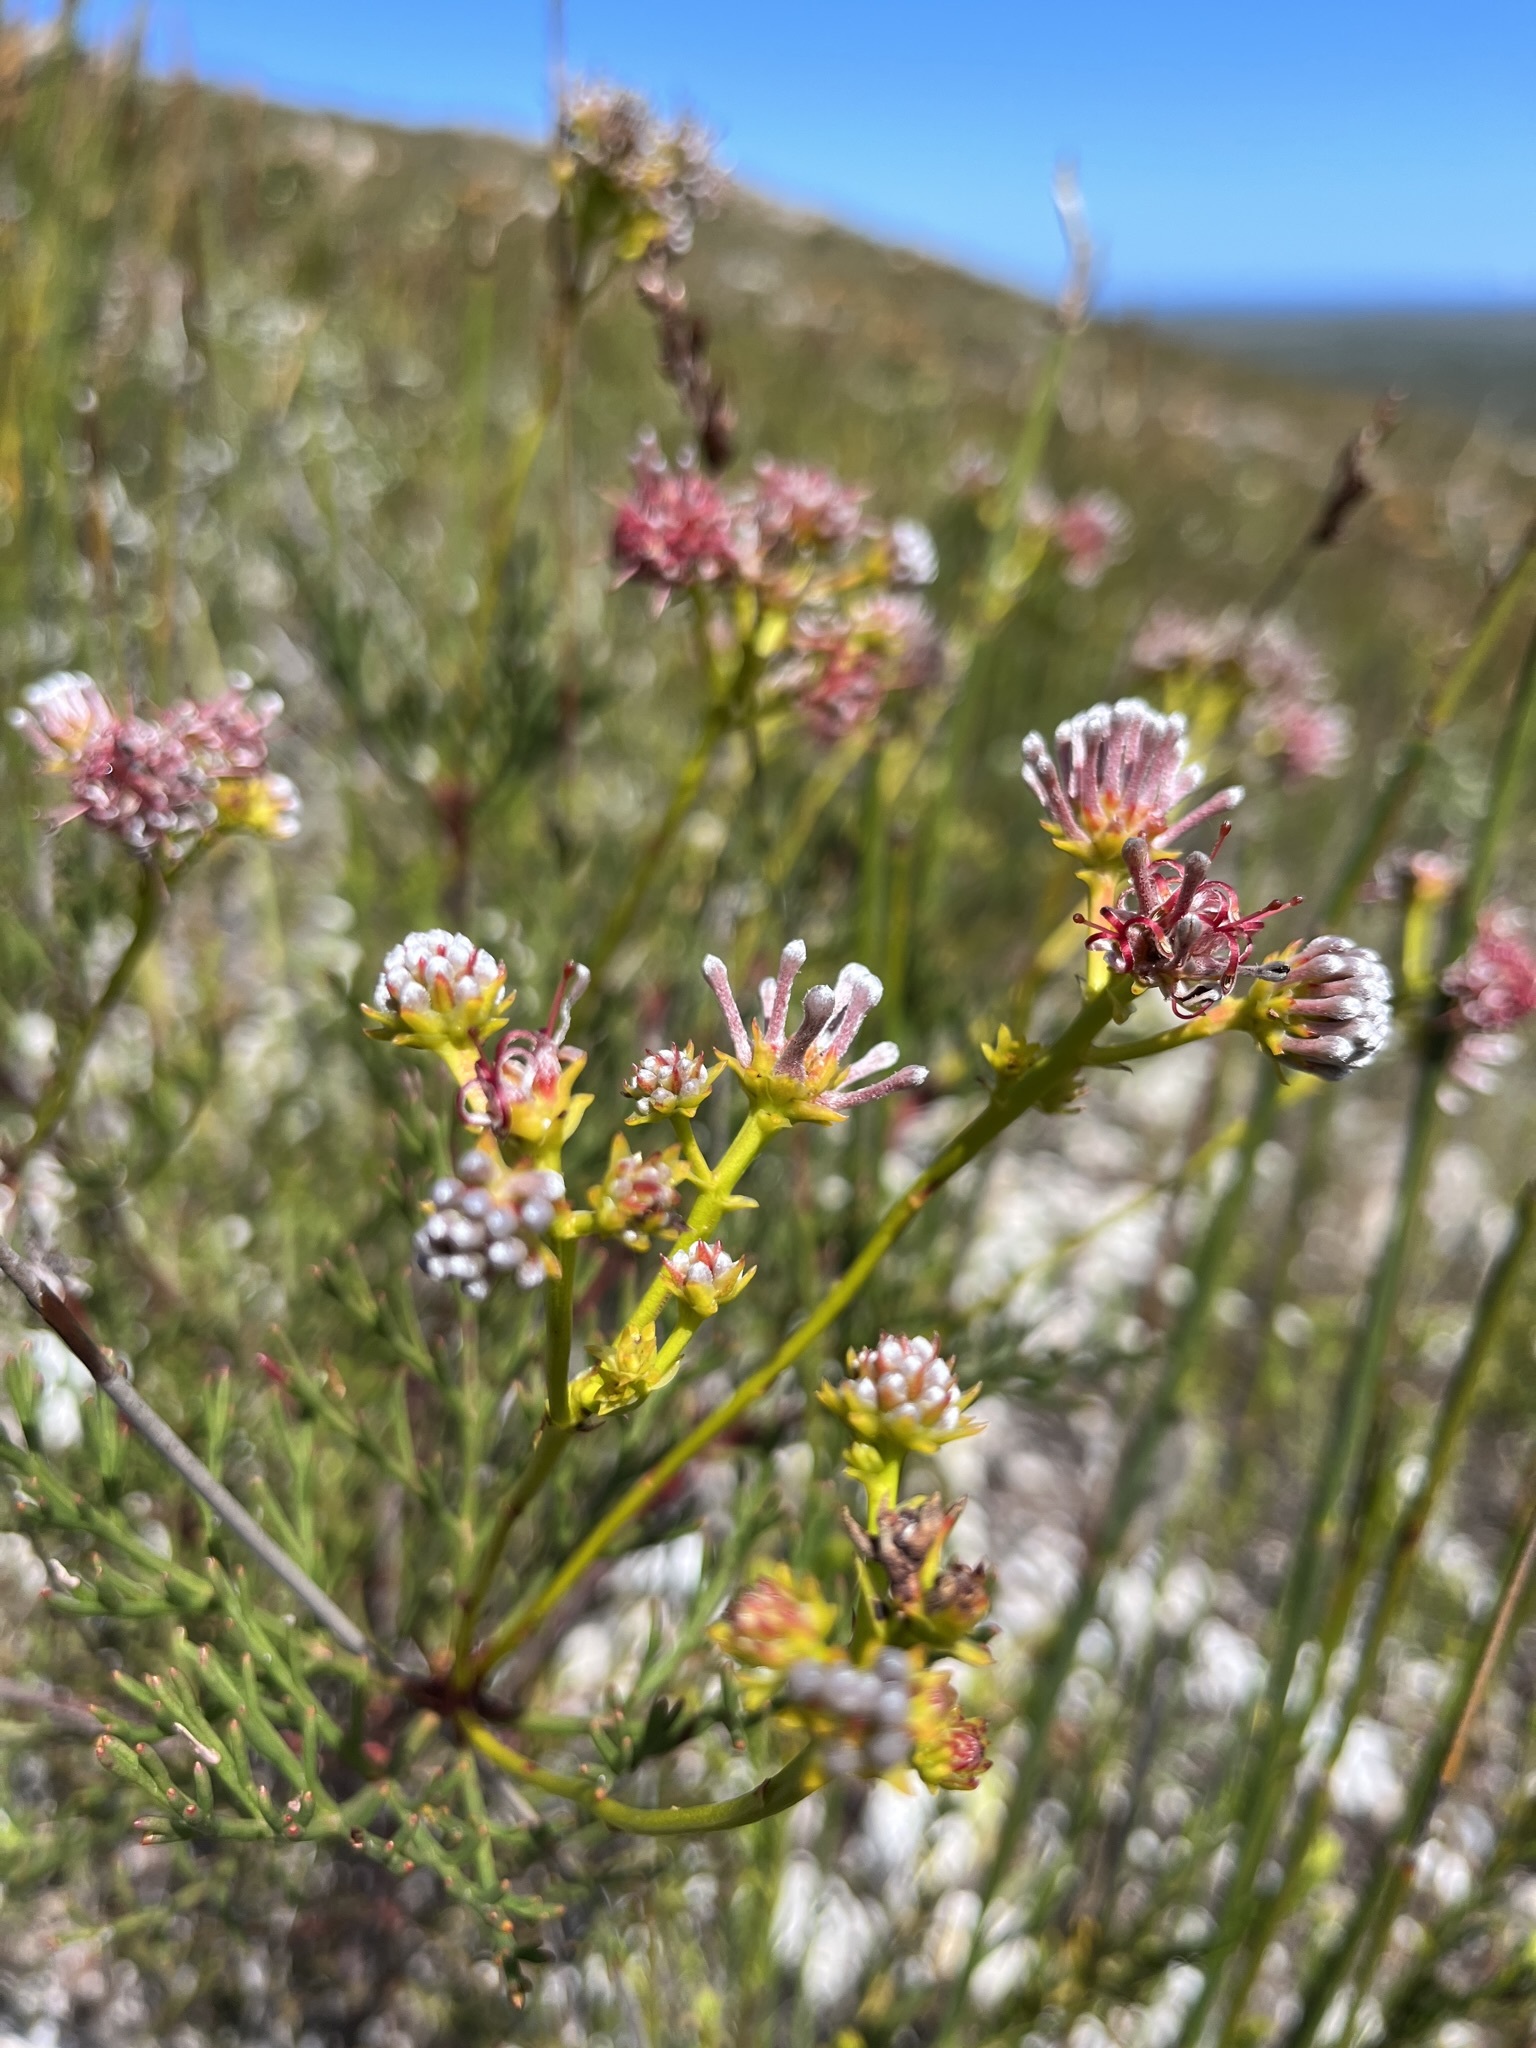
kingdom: Plantae
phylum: Tracheophyta
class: Magnoliopsida
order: Proteales
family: Proteaceae
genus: Serruria
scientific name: Serruria elongata
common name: Long-stalk spiderhead
